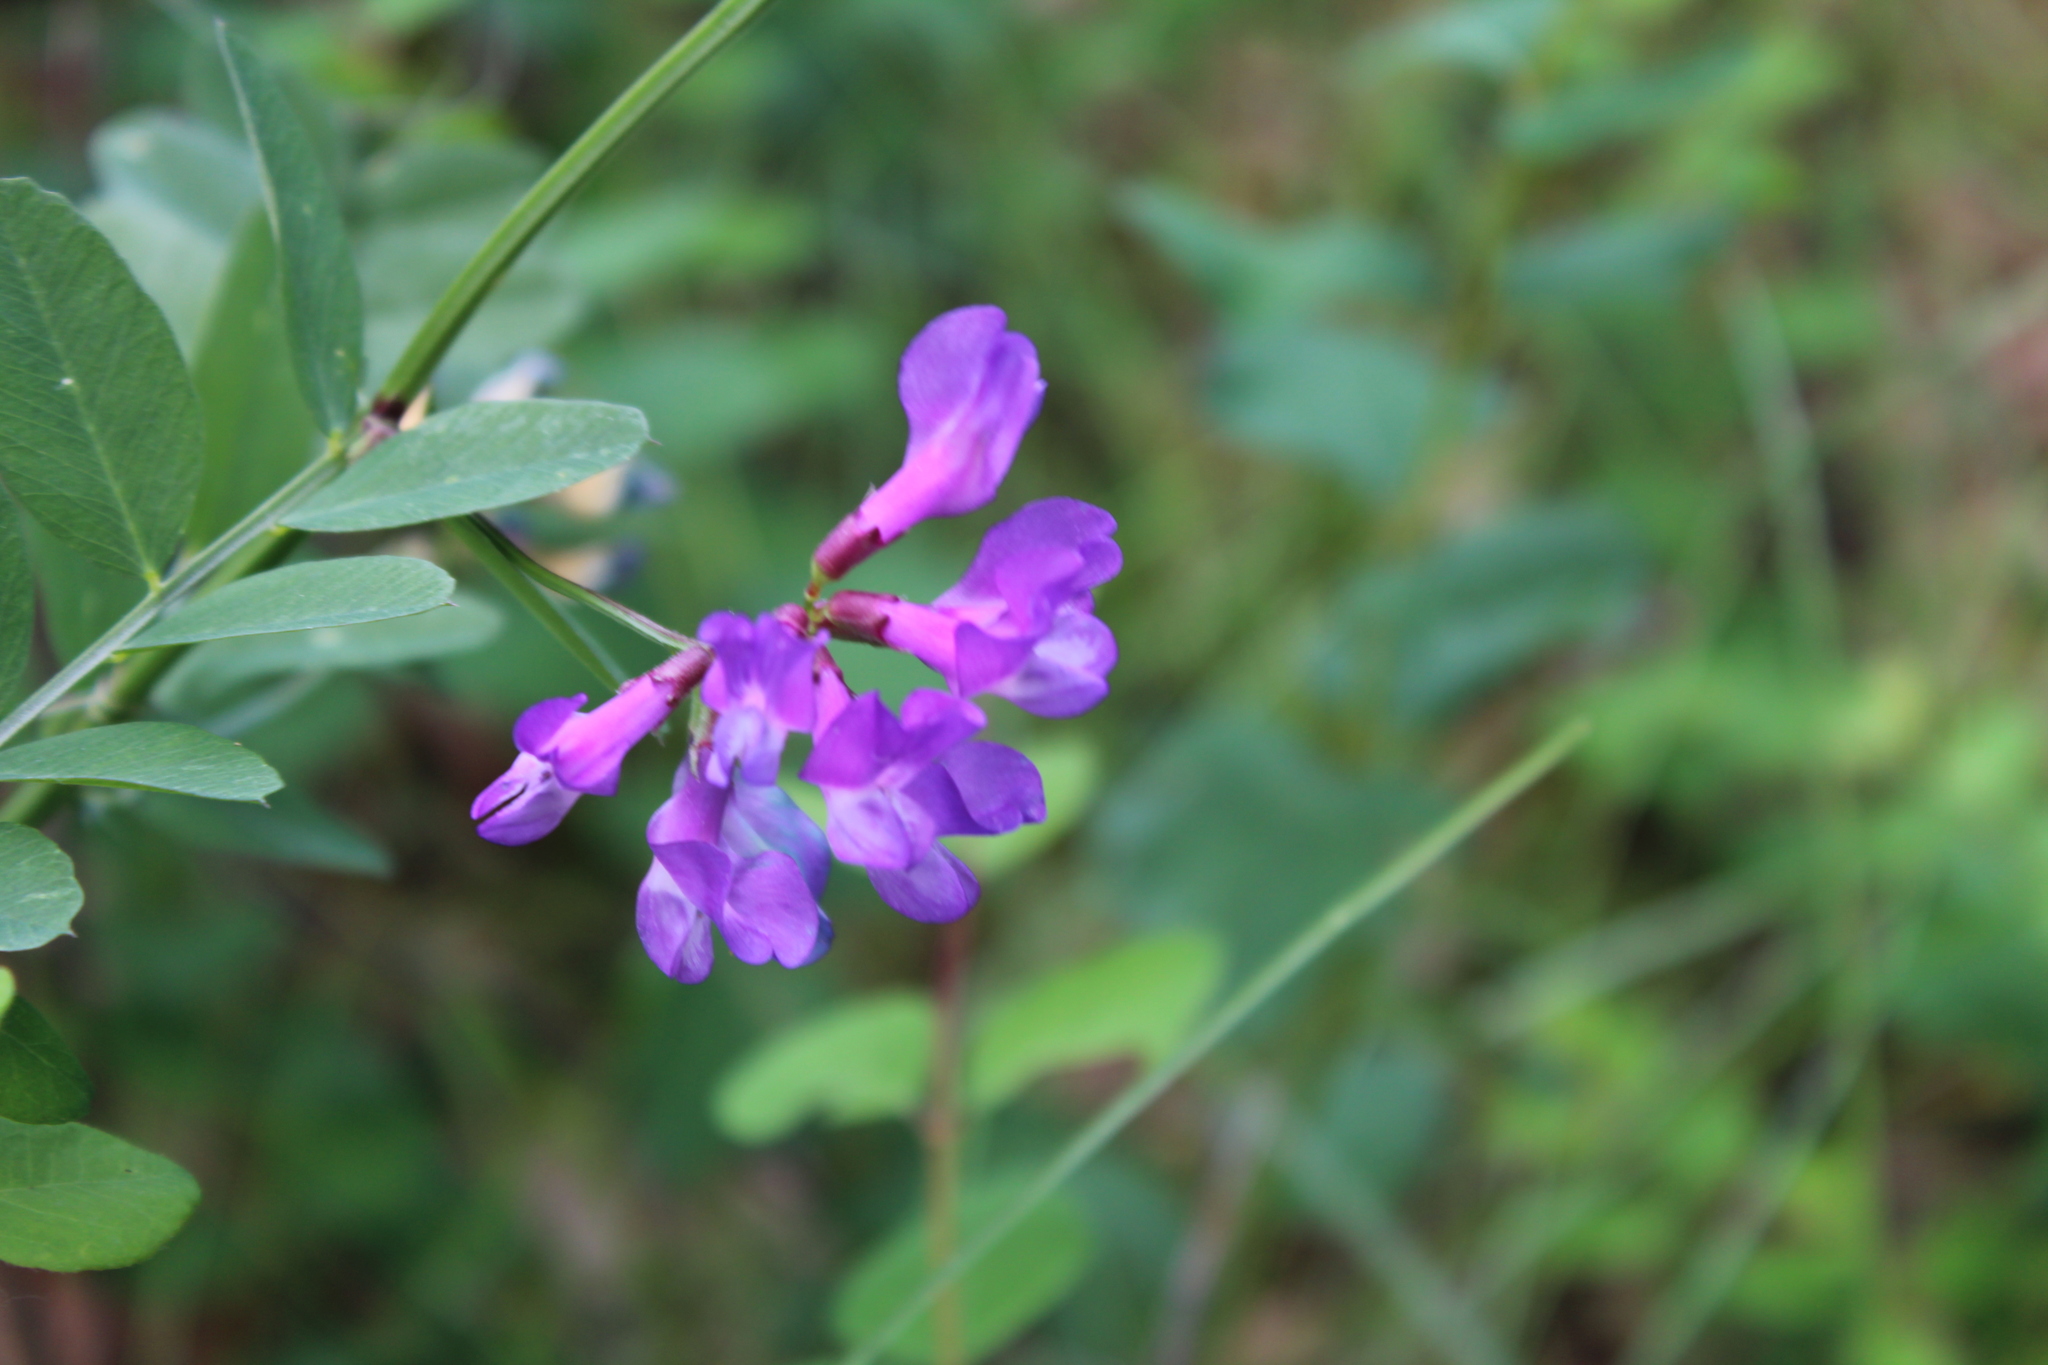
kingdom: Plantae
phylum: Tracheophyta
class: Magnoliopsida
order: Fabales
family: Fabaceae
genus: Vicia
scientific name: Vicia americana
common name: American vetch
